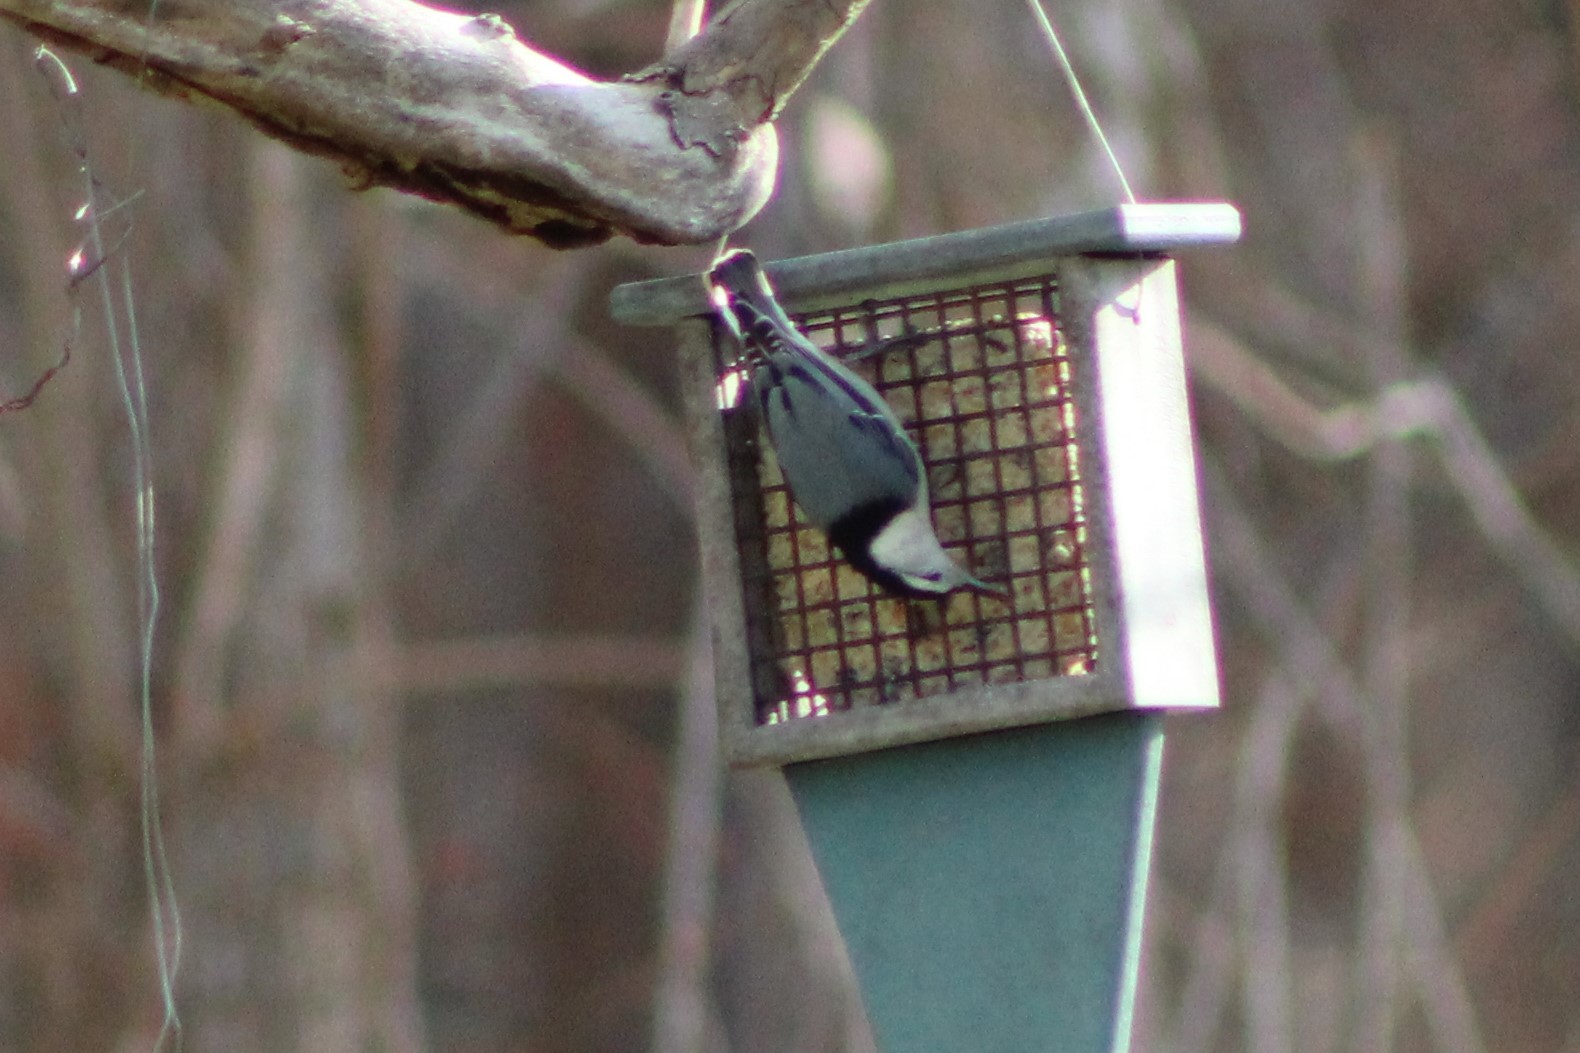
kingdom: Animalia
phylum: Chordata
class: Aves
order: Passeriformes
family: Sittidae
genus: Sitta
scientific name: Sitta carolinensis
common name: White-breasted nuthatch
